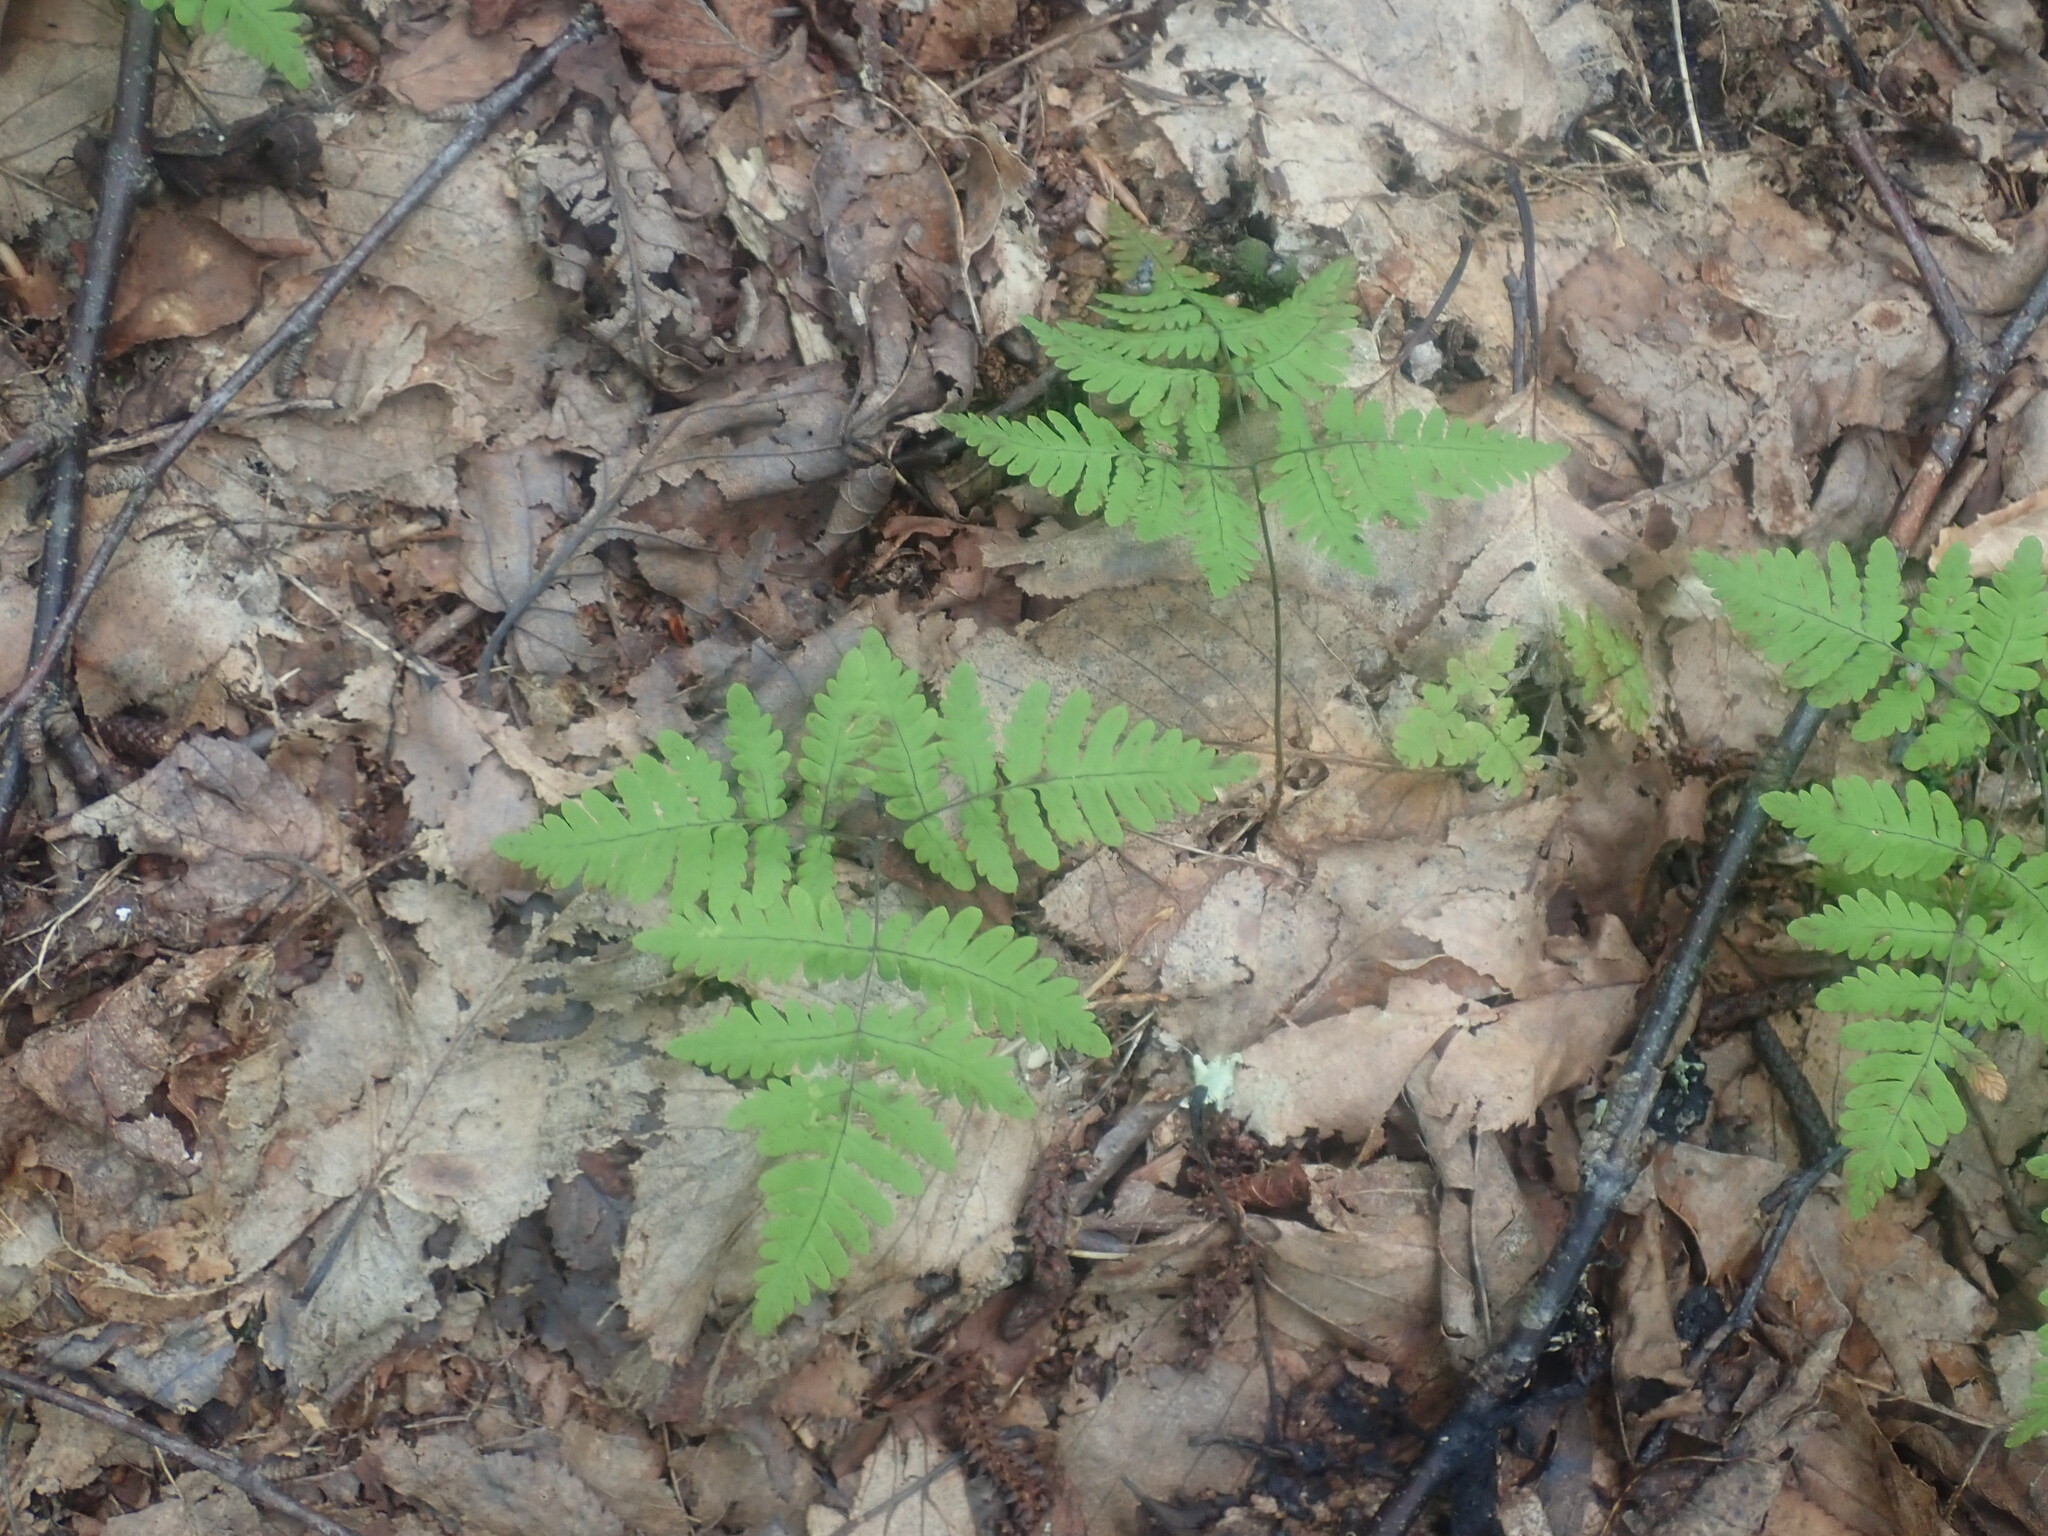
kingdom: Plantae
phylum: Tracheophyta
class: Polypodiopsida
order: Polypodiales
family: Cystopteridaceae
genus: Gymnocarpium
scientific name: Gymnocarpium dryopteris
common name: Oak fern
